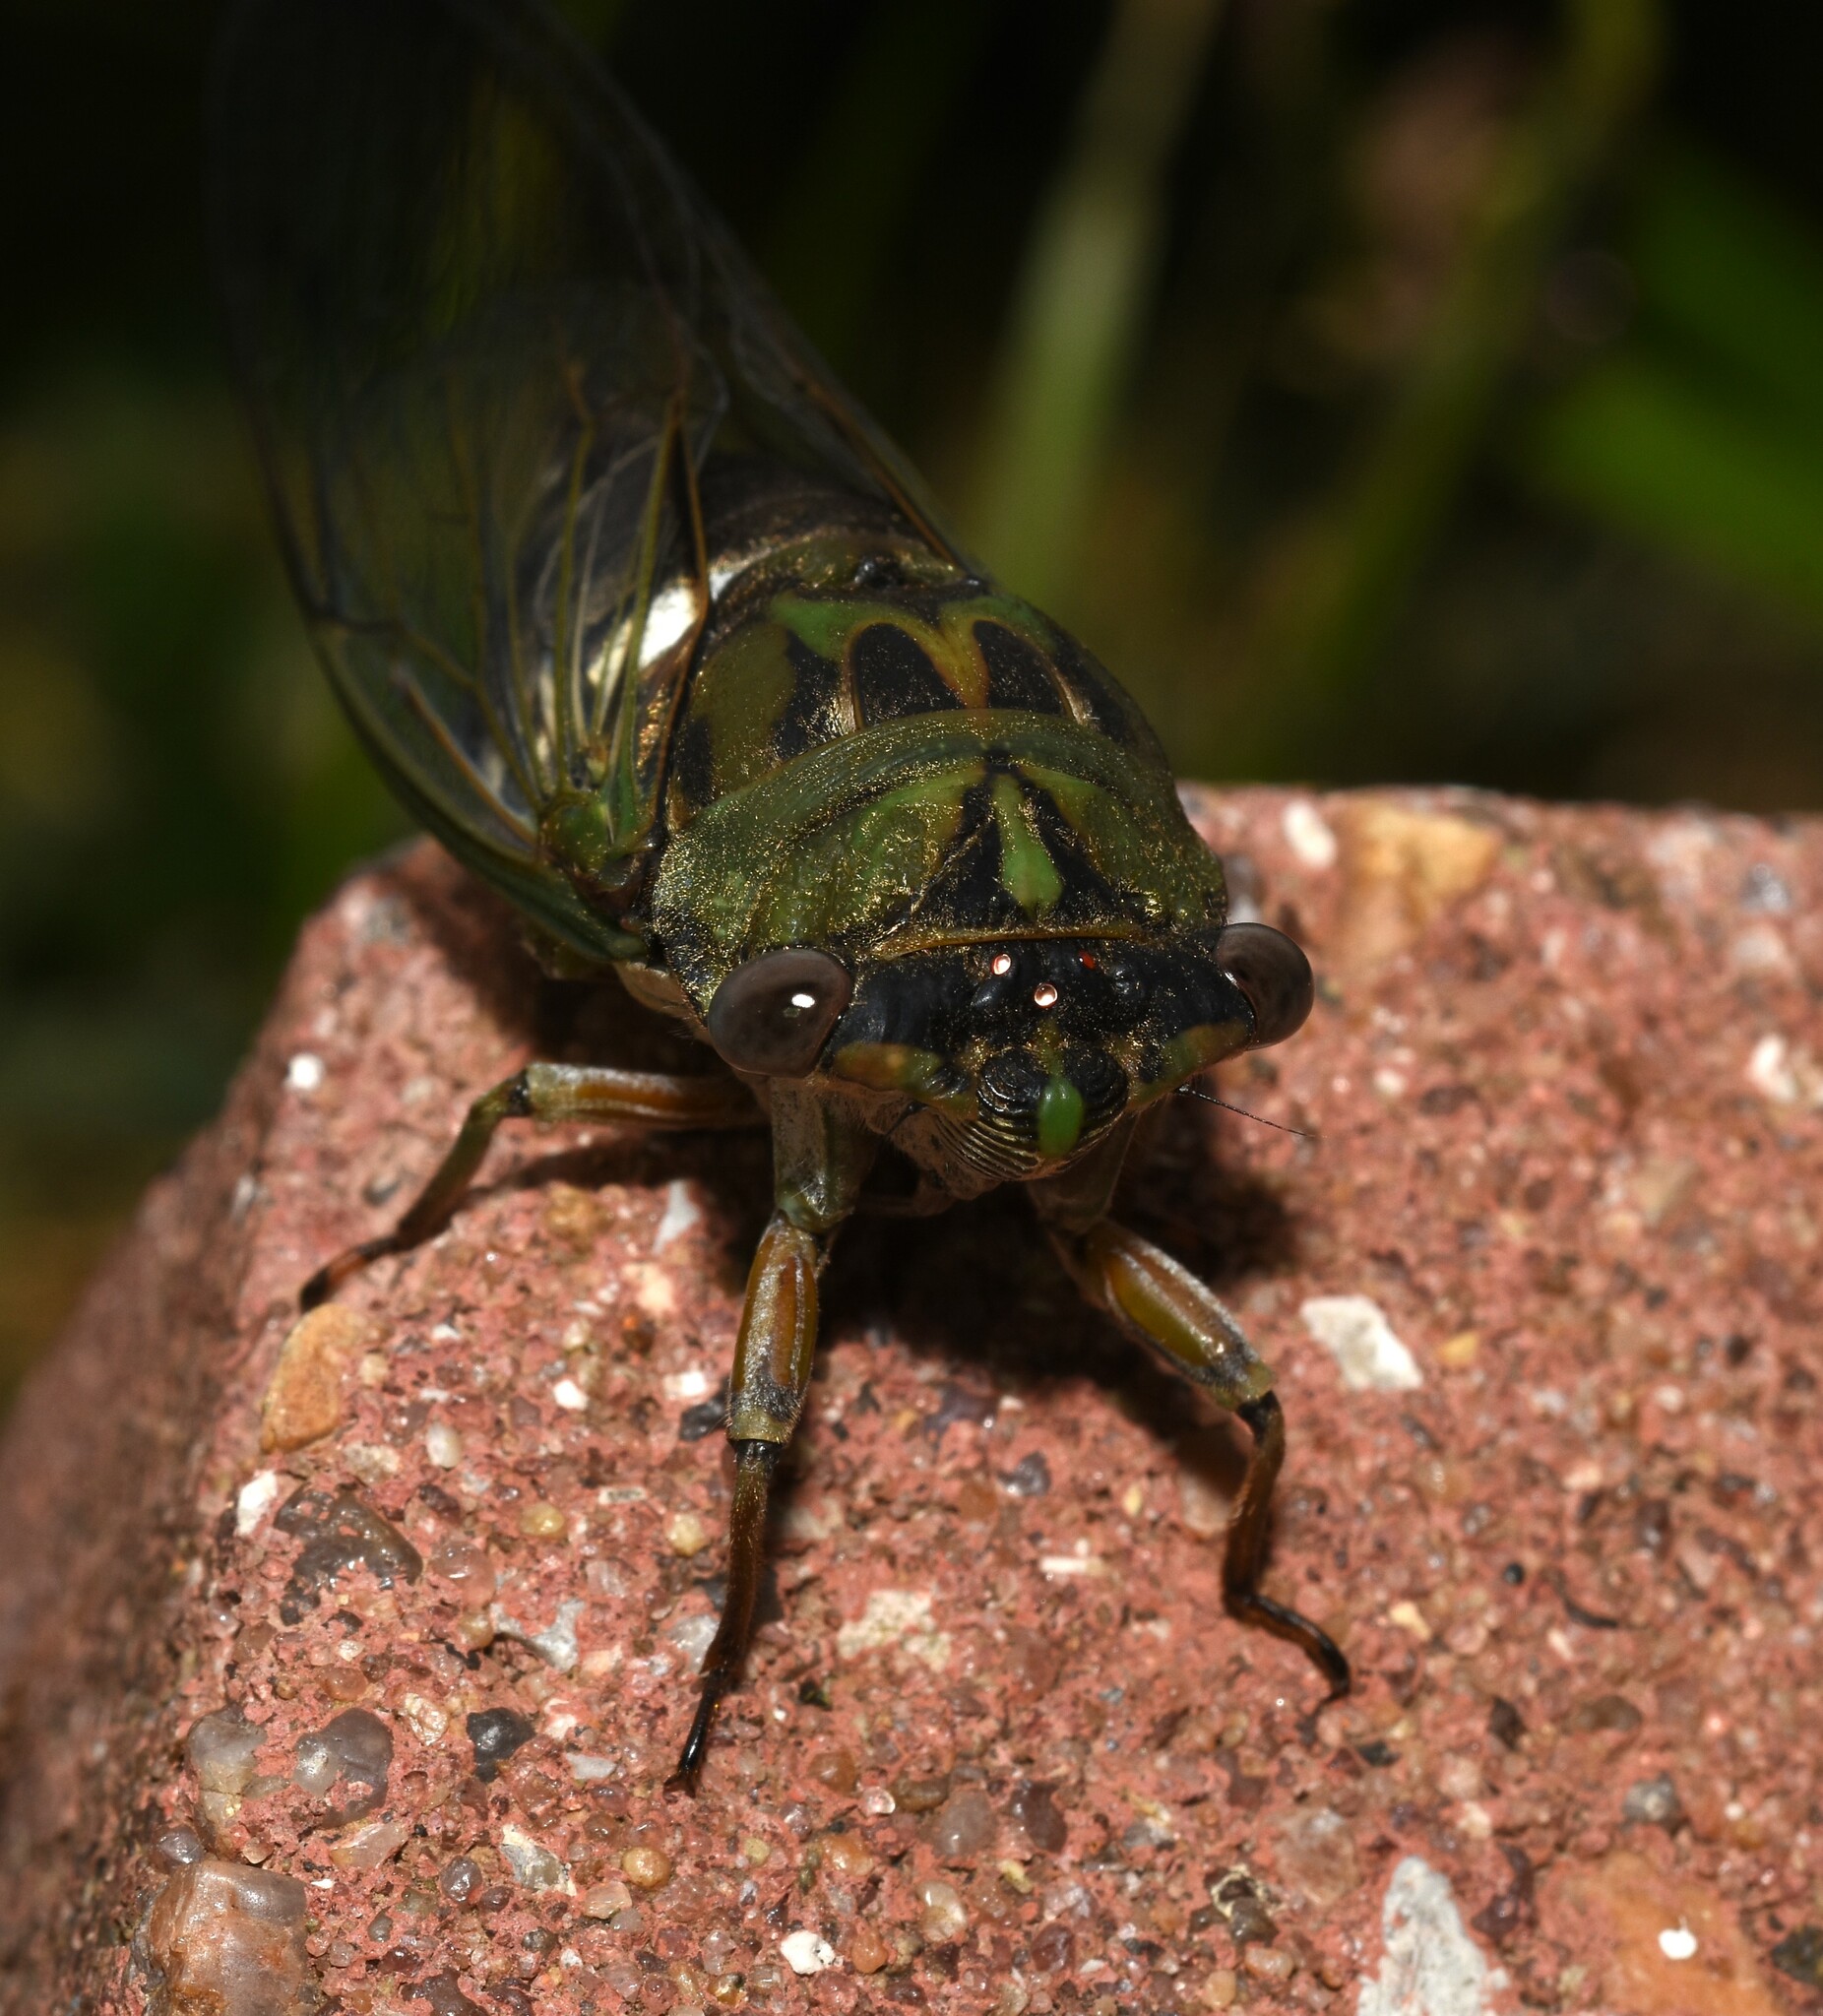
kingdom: Animalia
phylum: Arthropoda
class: Insecta
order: Hemiptera
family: Cicadidae
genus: Neotibicen
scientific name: Neotibicen pruinosus
